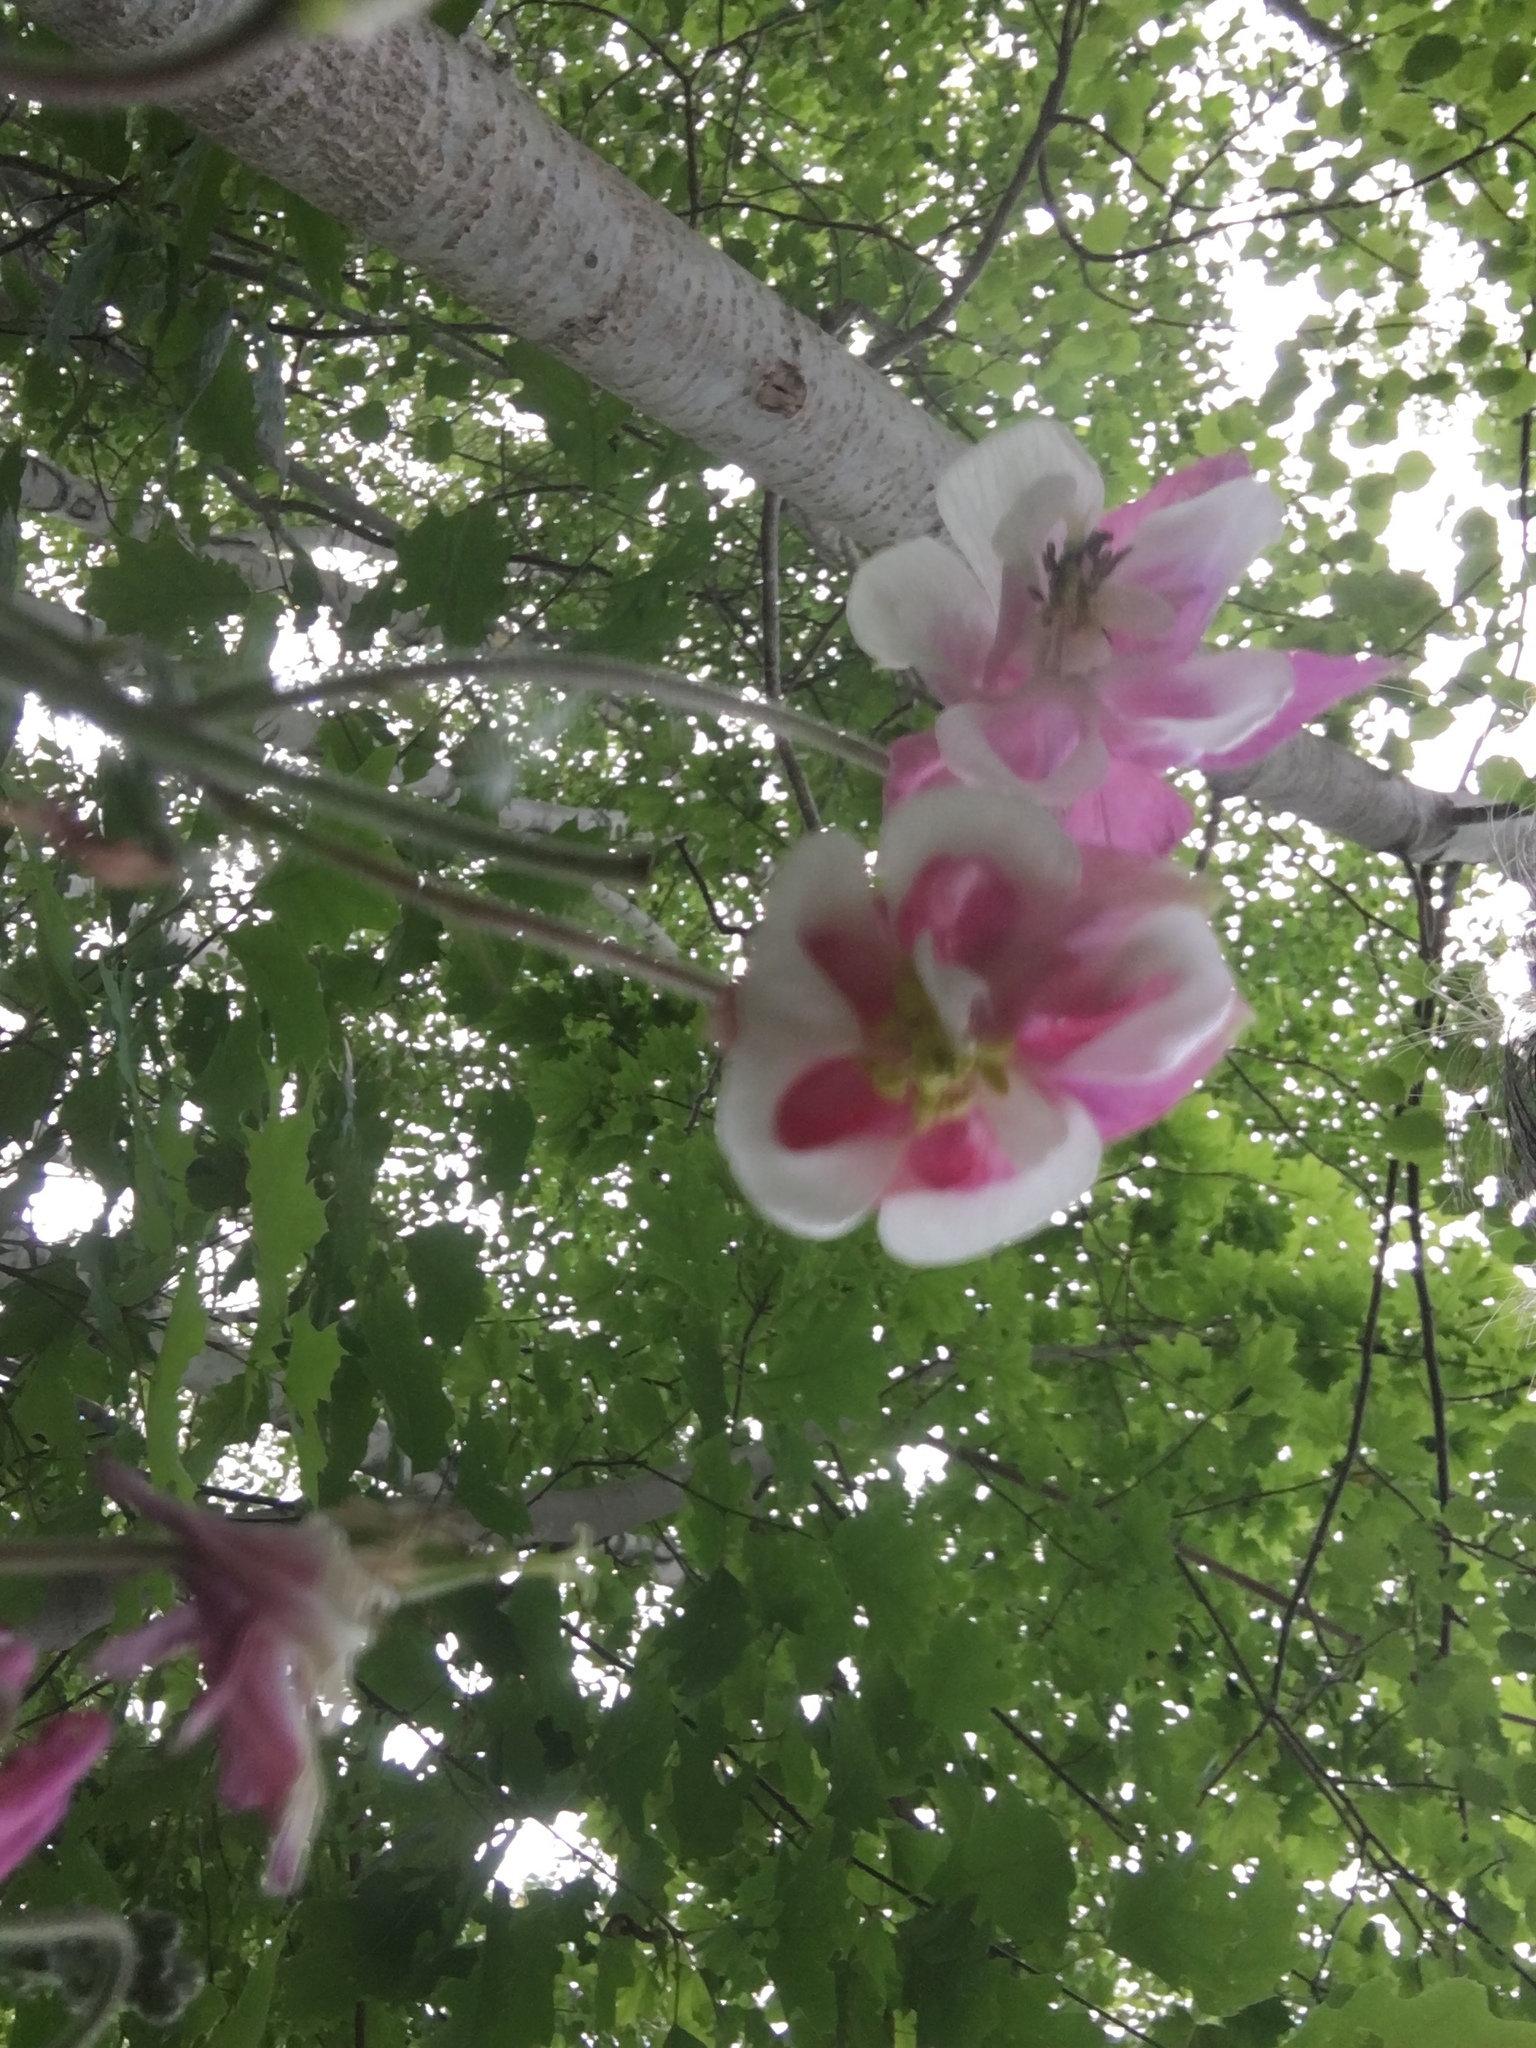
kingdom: Plantae
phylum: Tracheophyta
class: Magnoliopsida
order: Ranunculales
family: Ranunculaceae
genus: Aquilegia
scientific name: Aquilegia vulgaris
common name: Columbine
